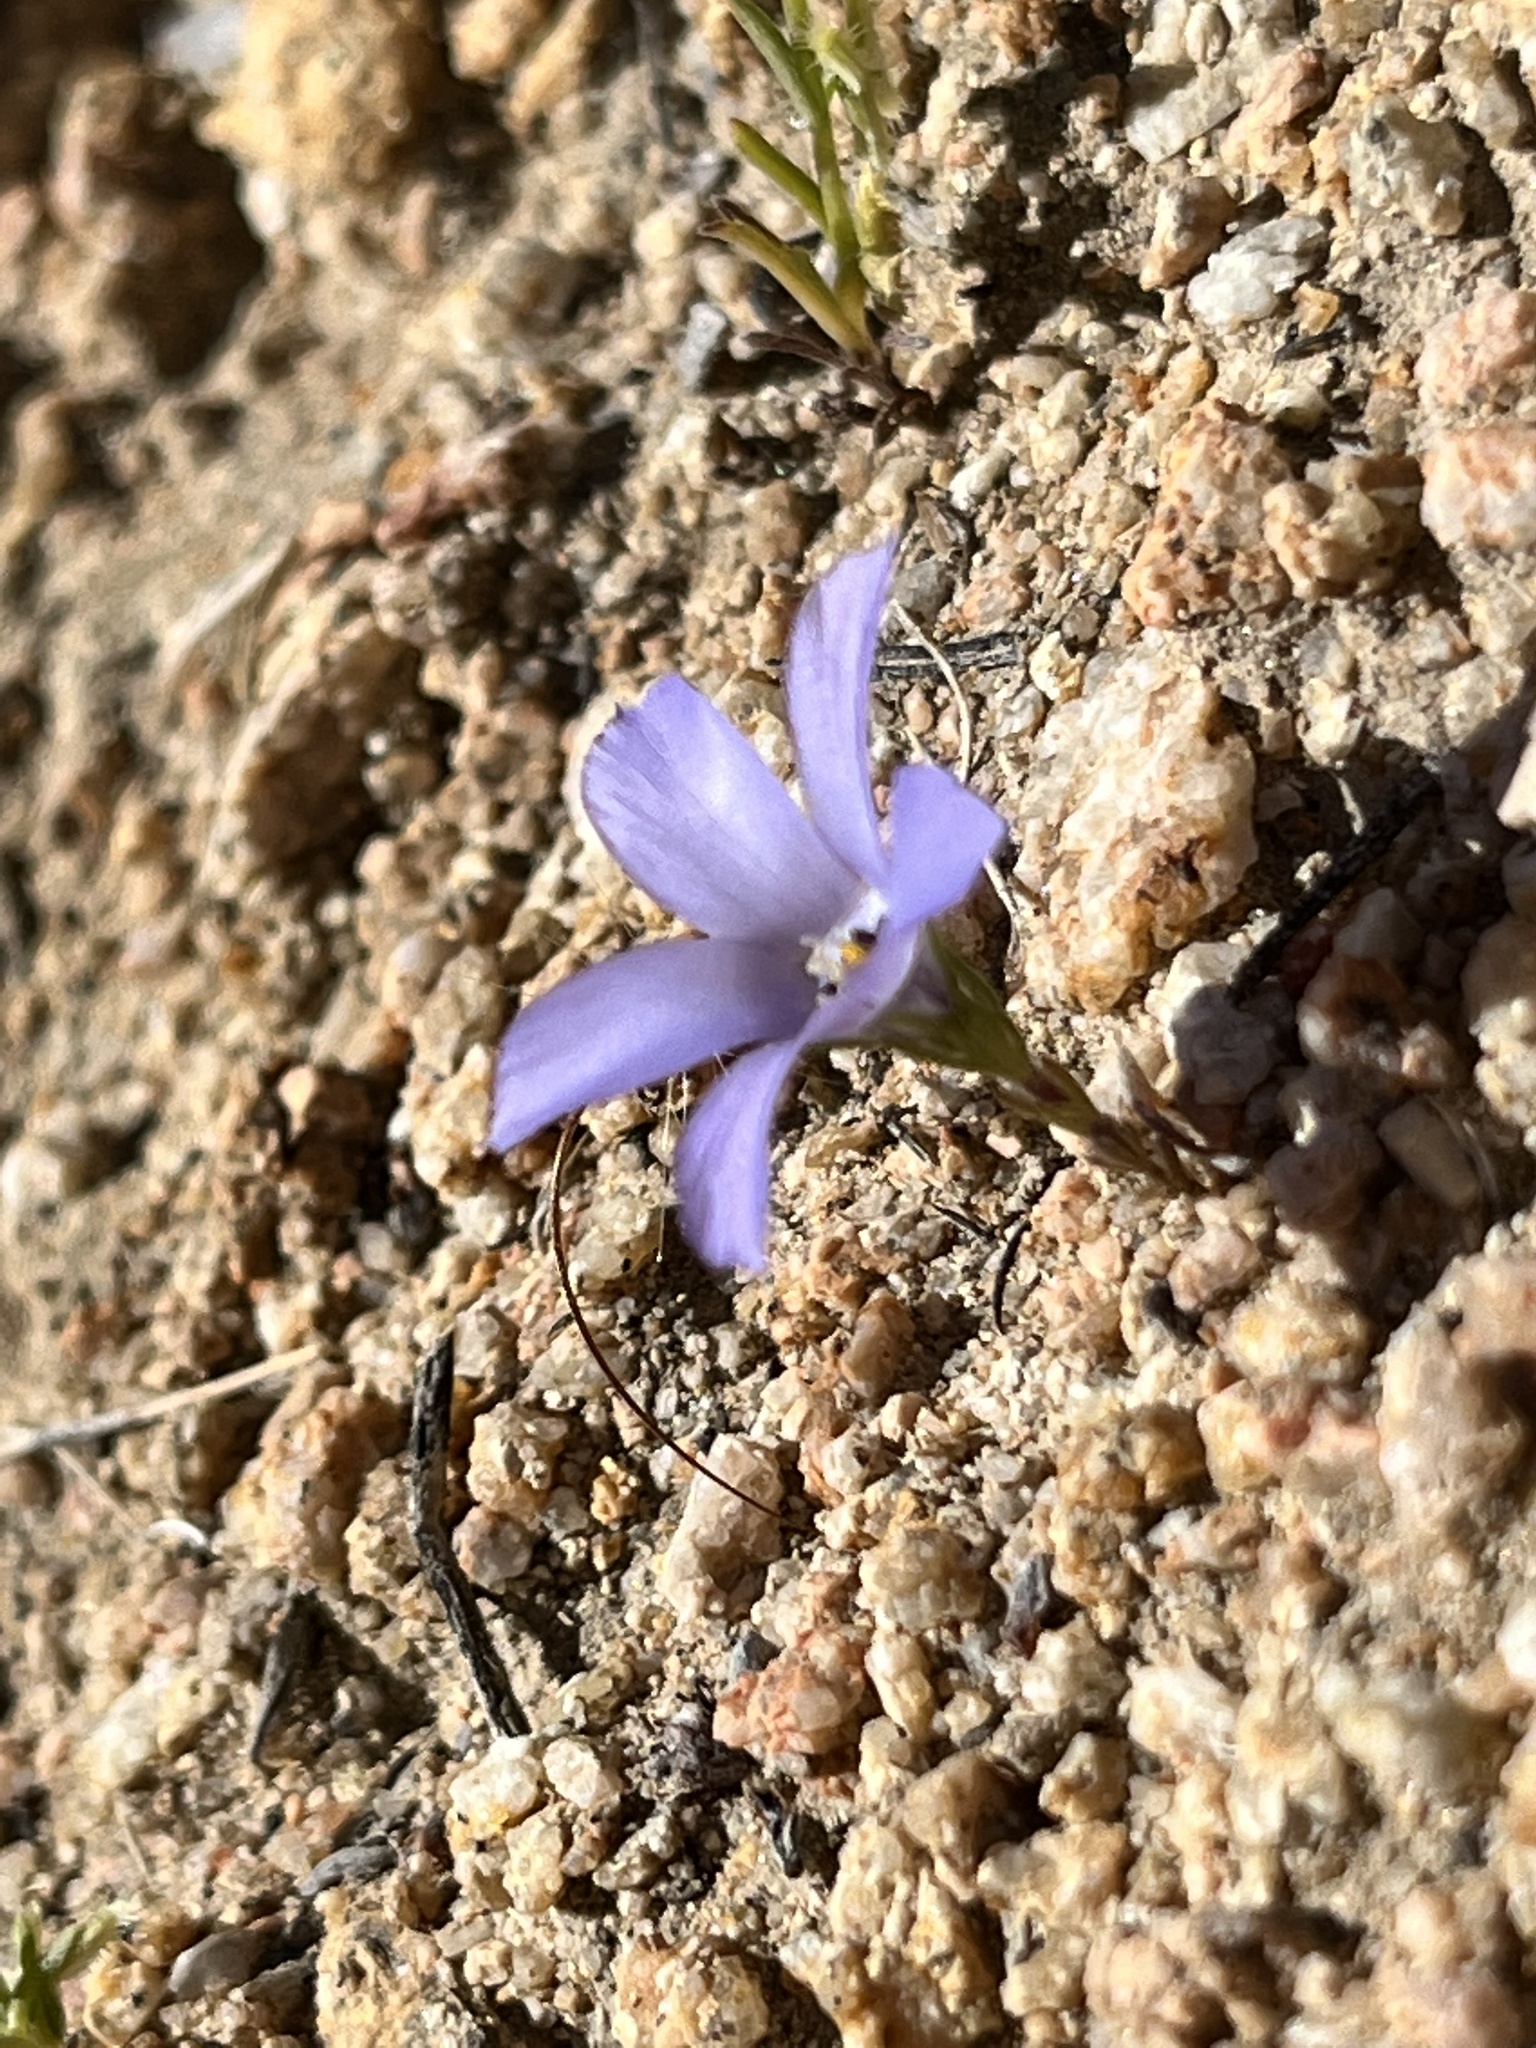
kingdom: Plantae
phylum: Tracheophyta
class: Magnoliopsida
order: Ericales
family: Polemoniaceae
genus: Linanthus
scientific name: Linanthus parryae
